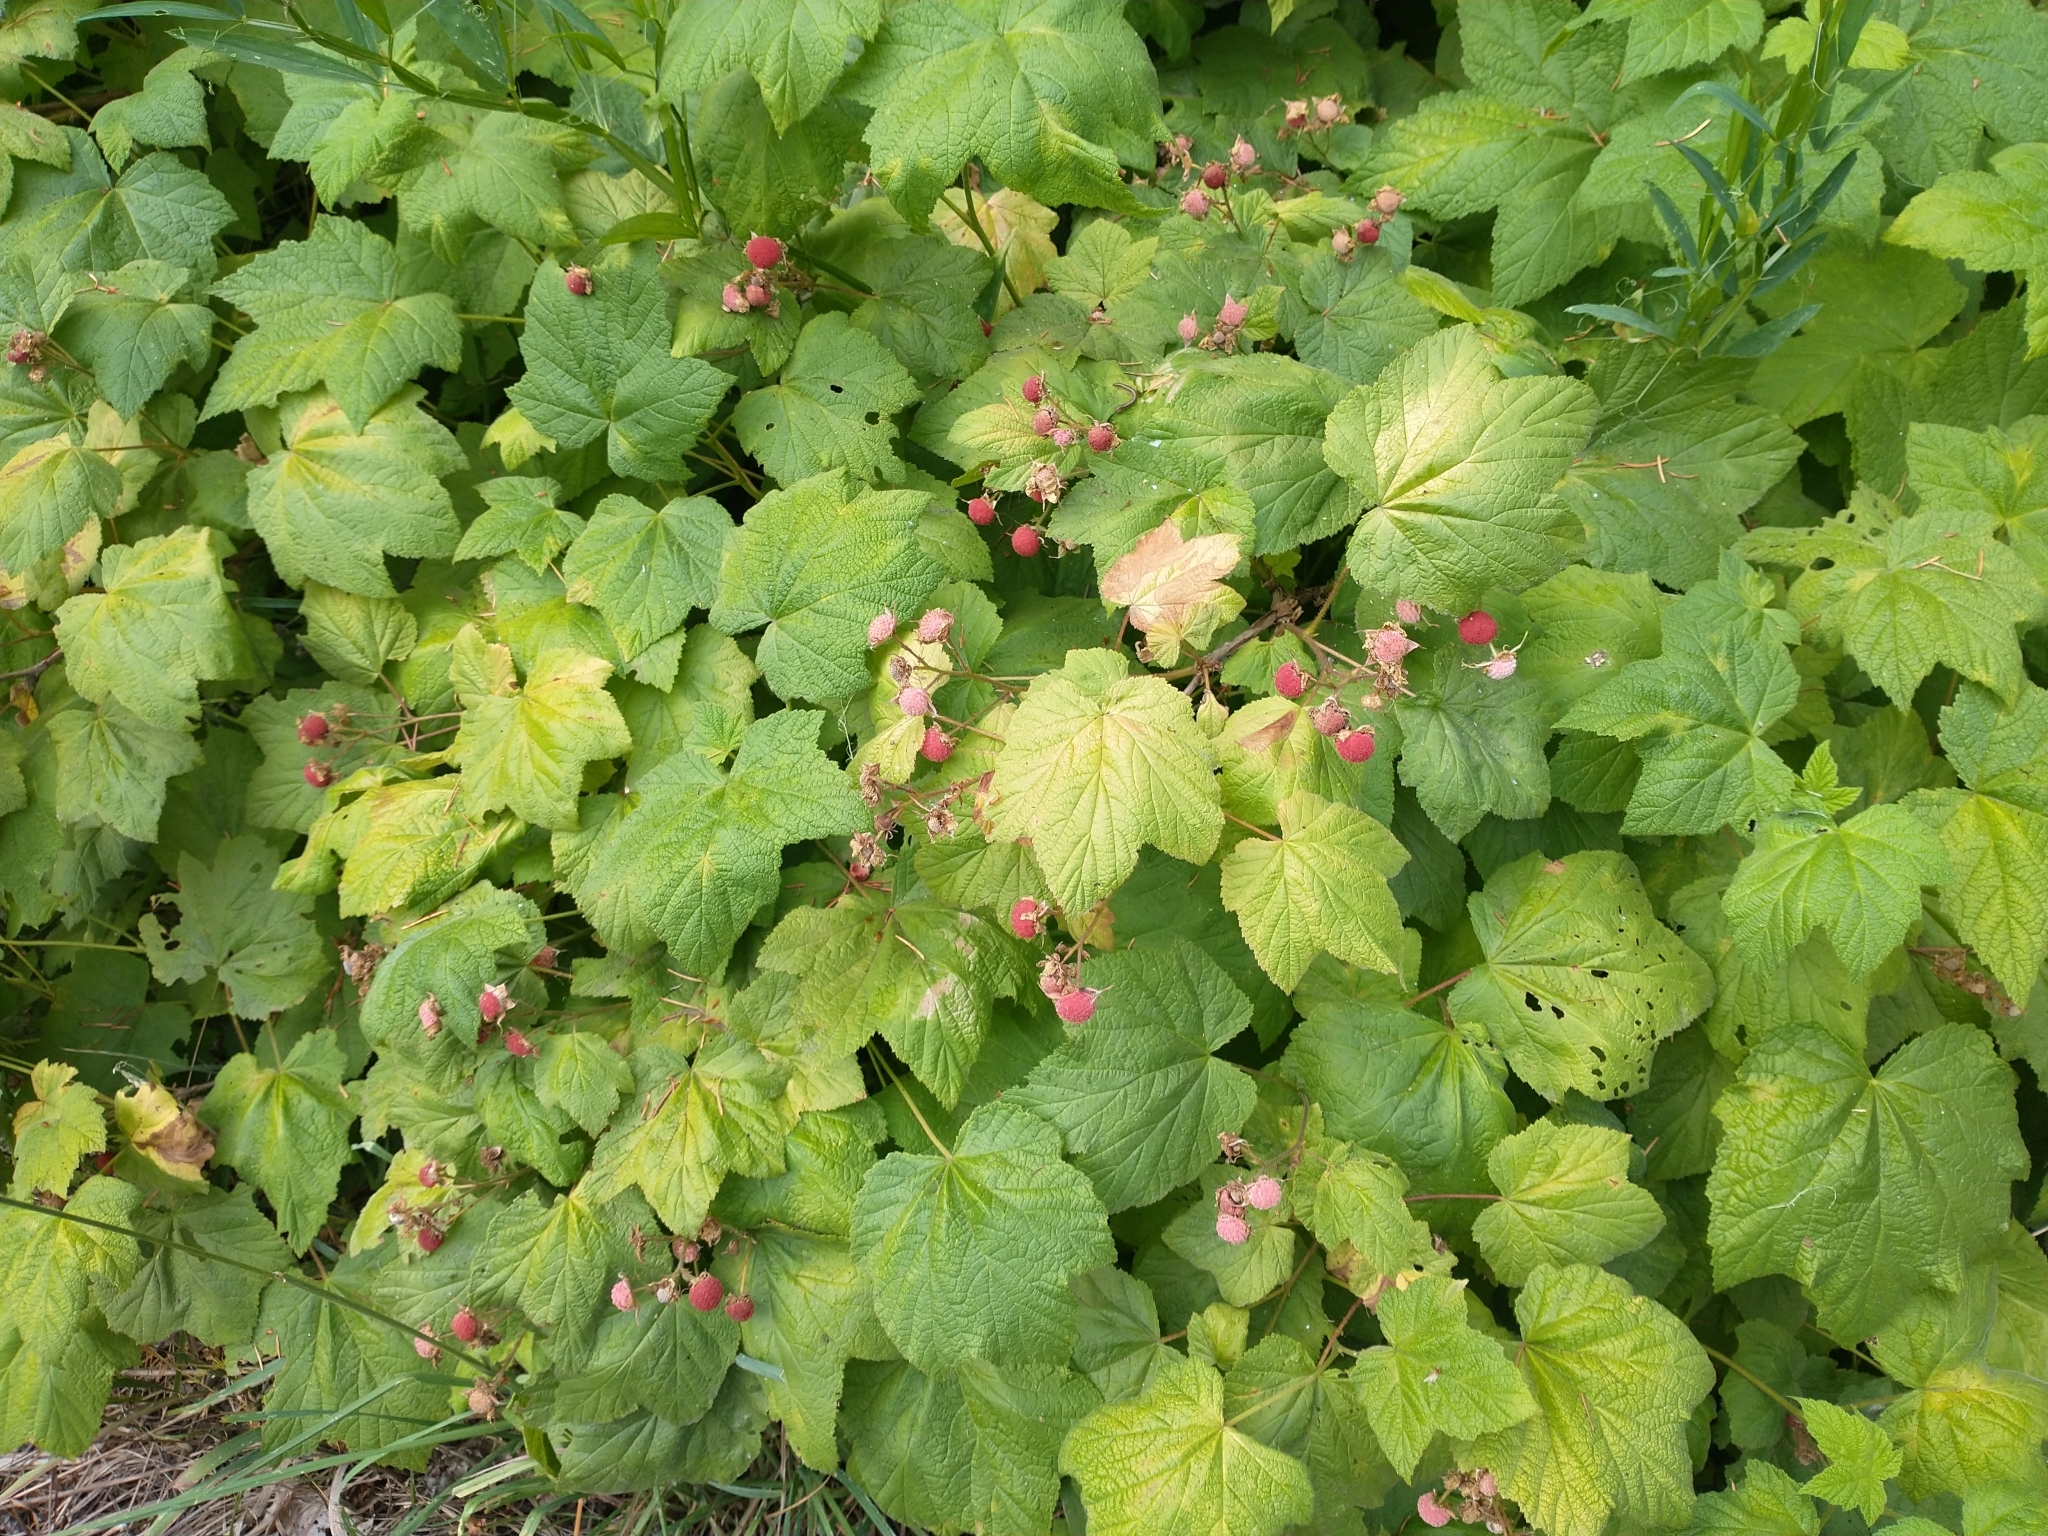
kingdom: Plantae
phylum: Tracheophyta
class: Magnoliopsida
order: Rosales
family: Rosaceae
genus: Rubus
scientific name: Rubus parviflorus
